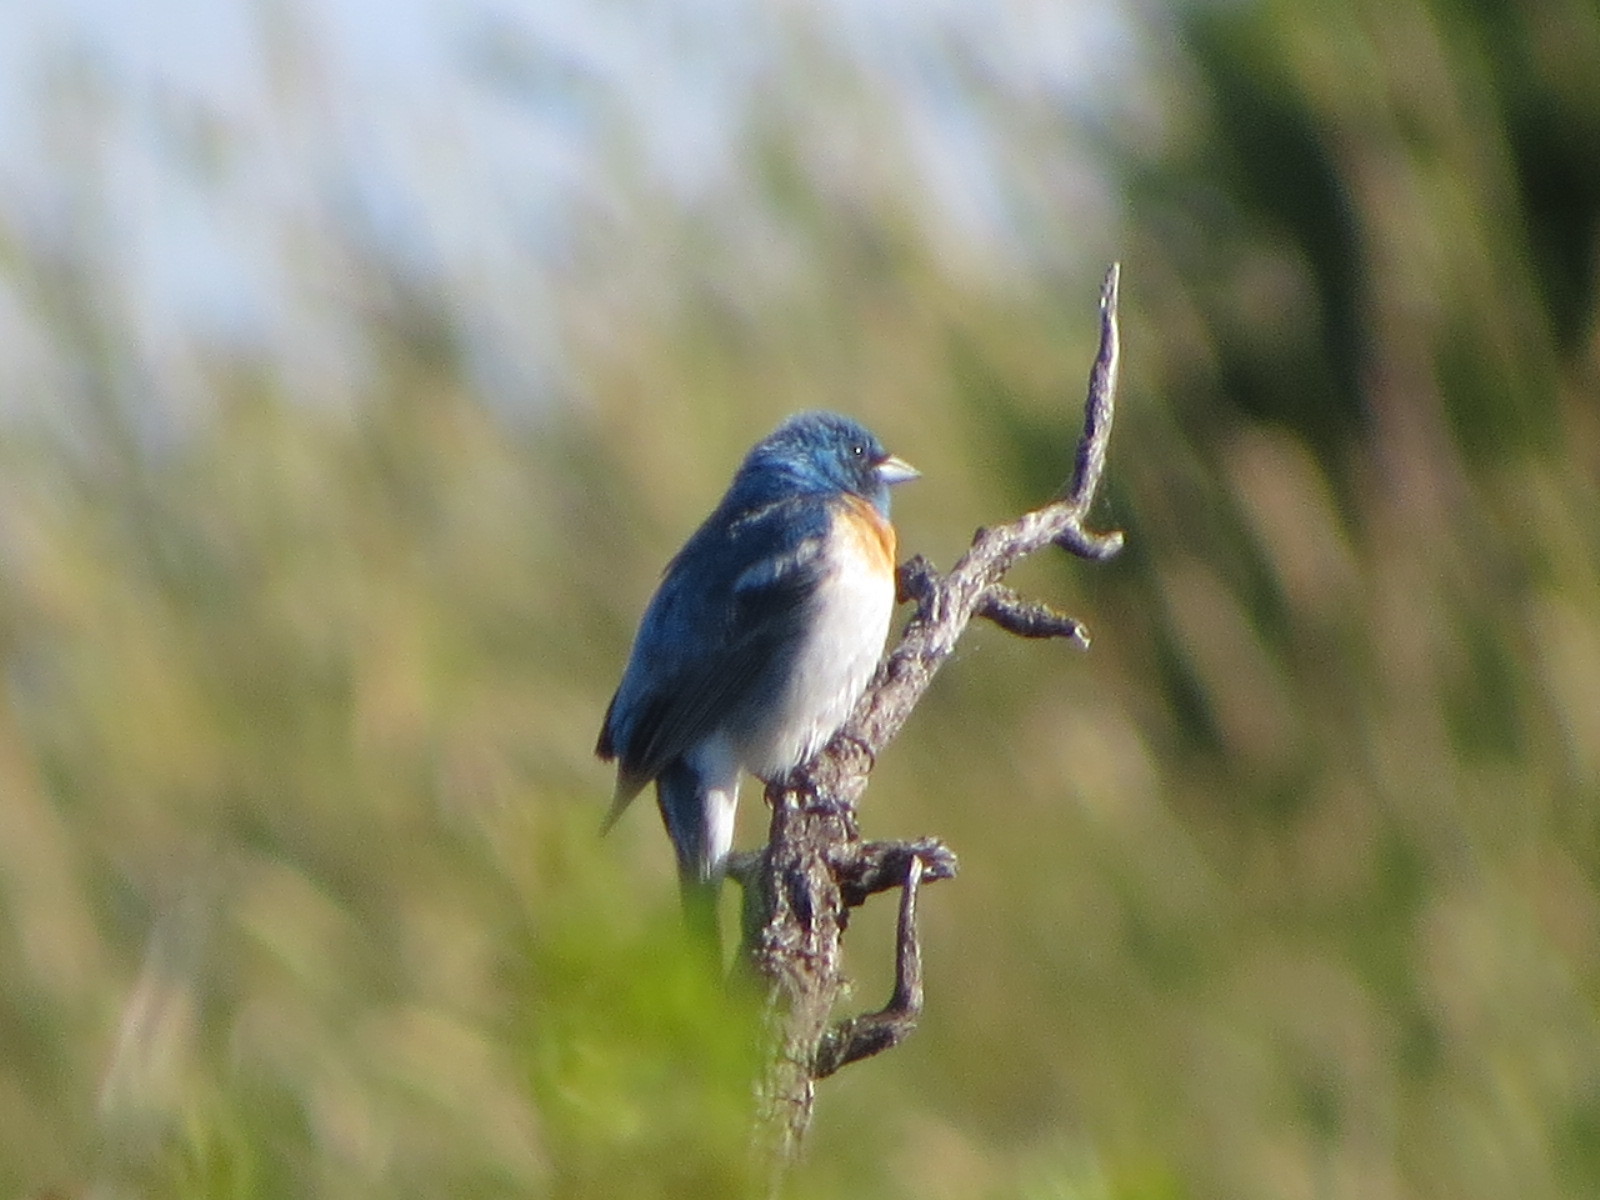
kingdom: Animalia
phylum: Chordata
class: Aves
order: Passeriformes
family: Cardinalidae
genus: Passerina
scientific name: Passerina amoena
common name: Lazuli bunting
